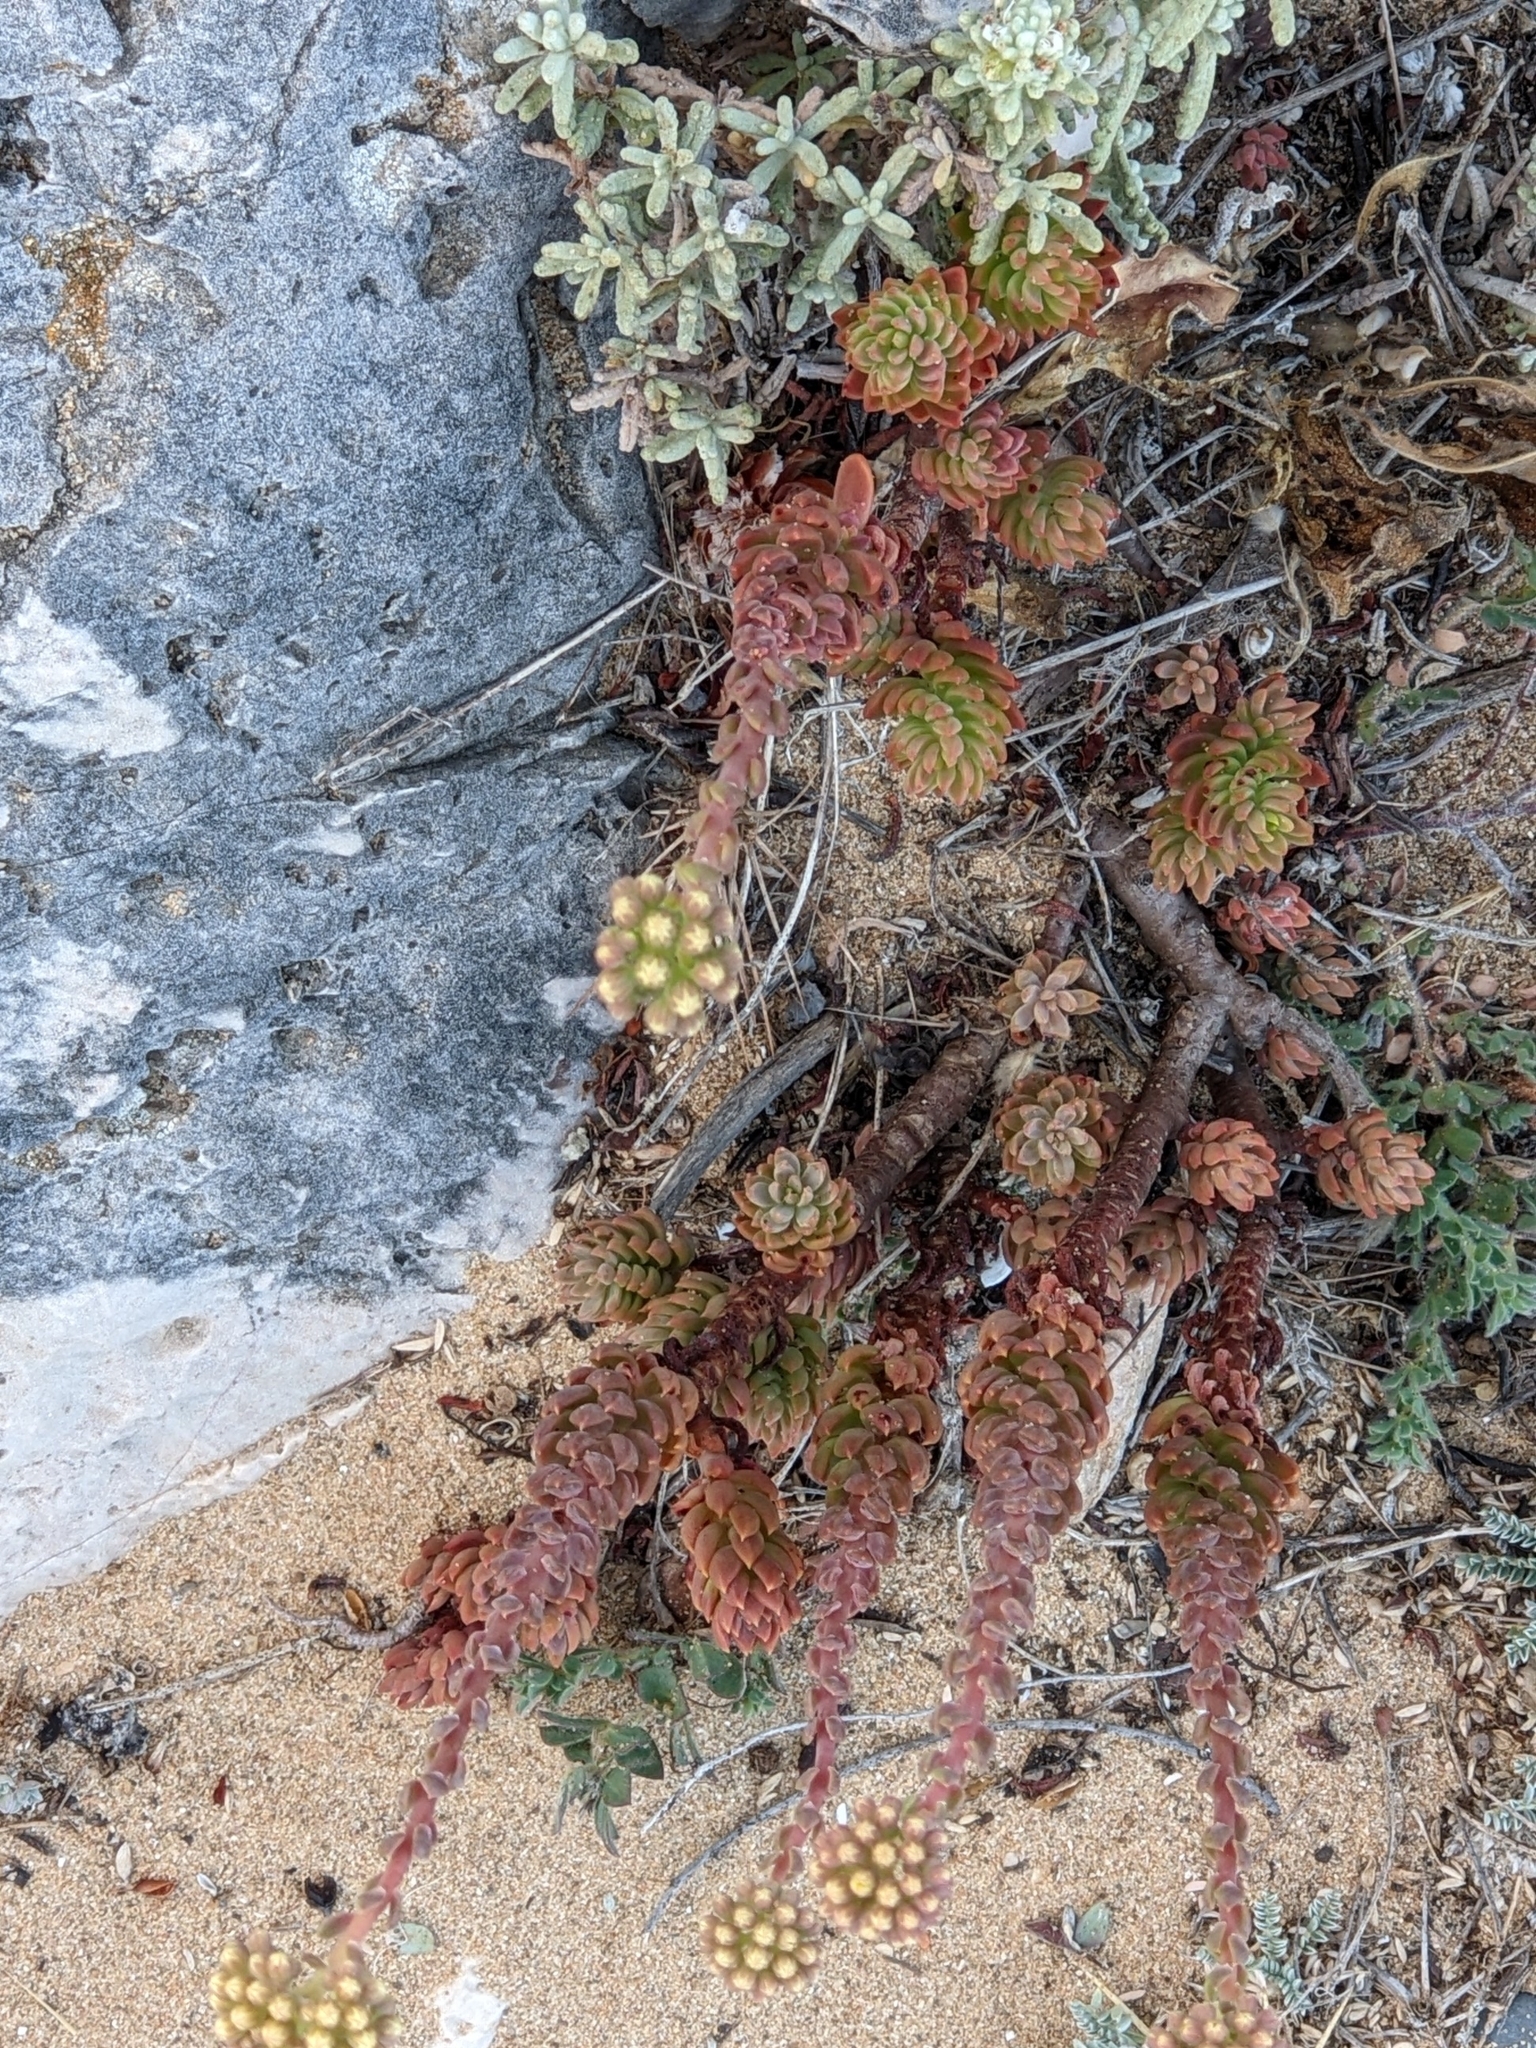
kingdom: Plantae
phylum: Tracheophyta
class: Magnoliopsida
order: Saxifragales
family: Crassulaceae
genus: Petrosedum
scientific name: Petrosedum sediforme
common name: Pale stonecrop
